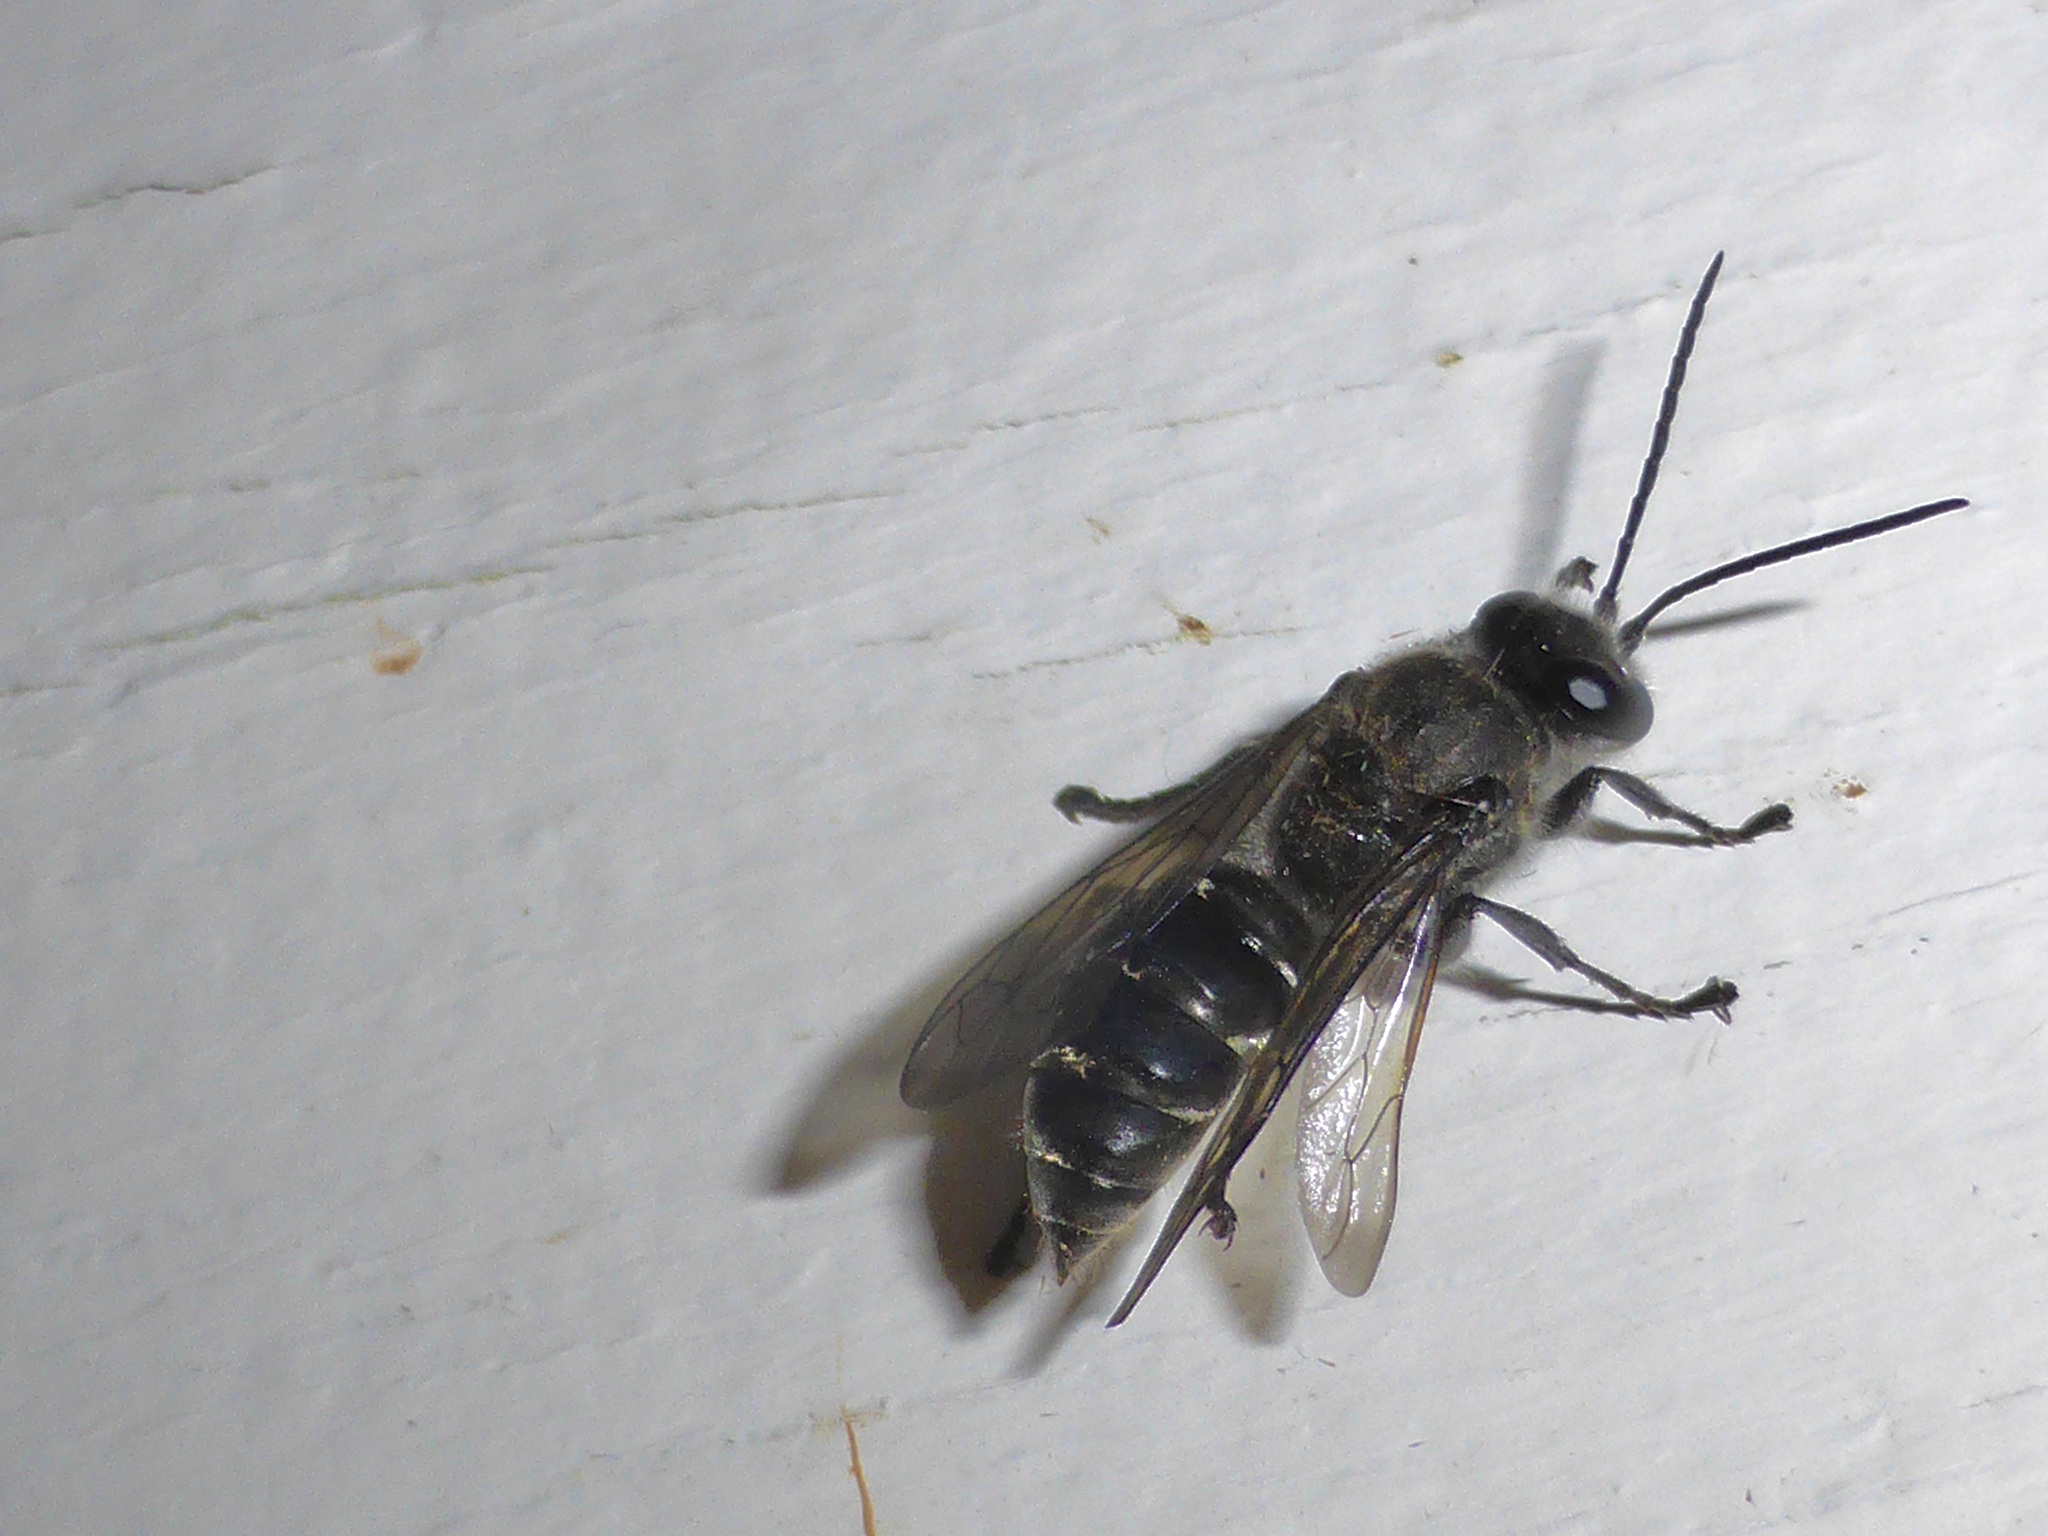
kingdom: Animalia
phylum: Arthropoda
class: Insecta
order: Hymenoptera
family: Crabronidae
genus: Pison
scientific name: Pison spinolae
